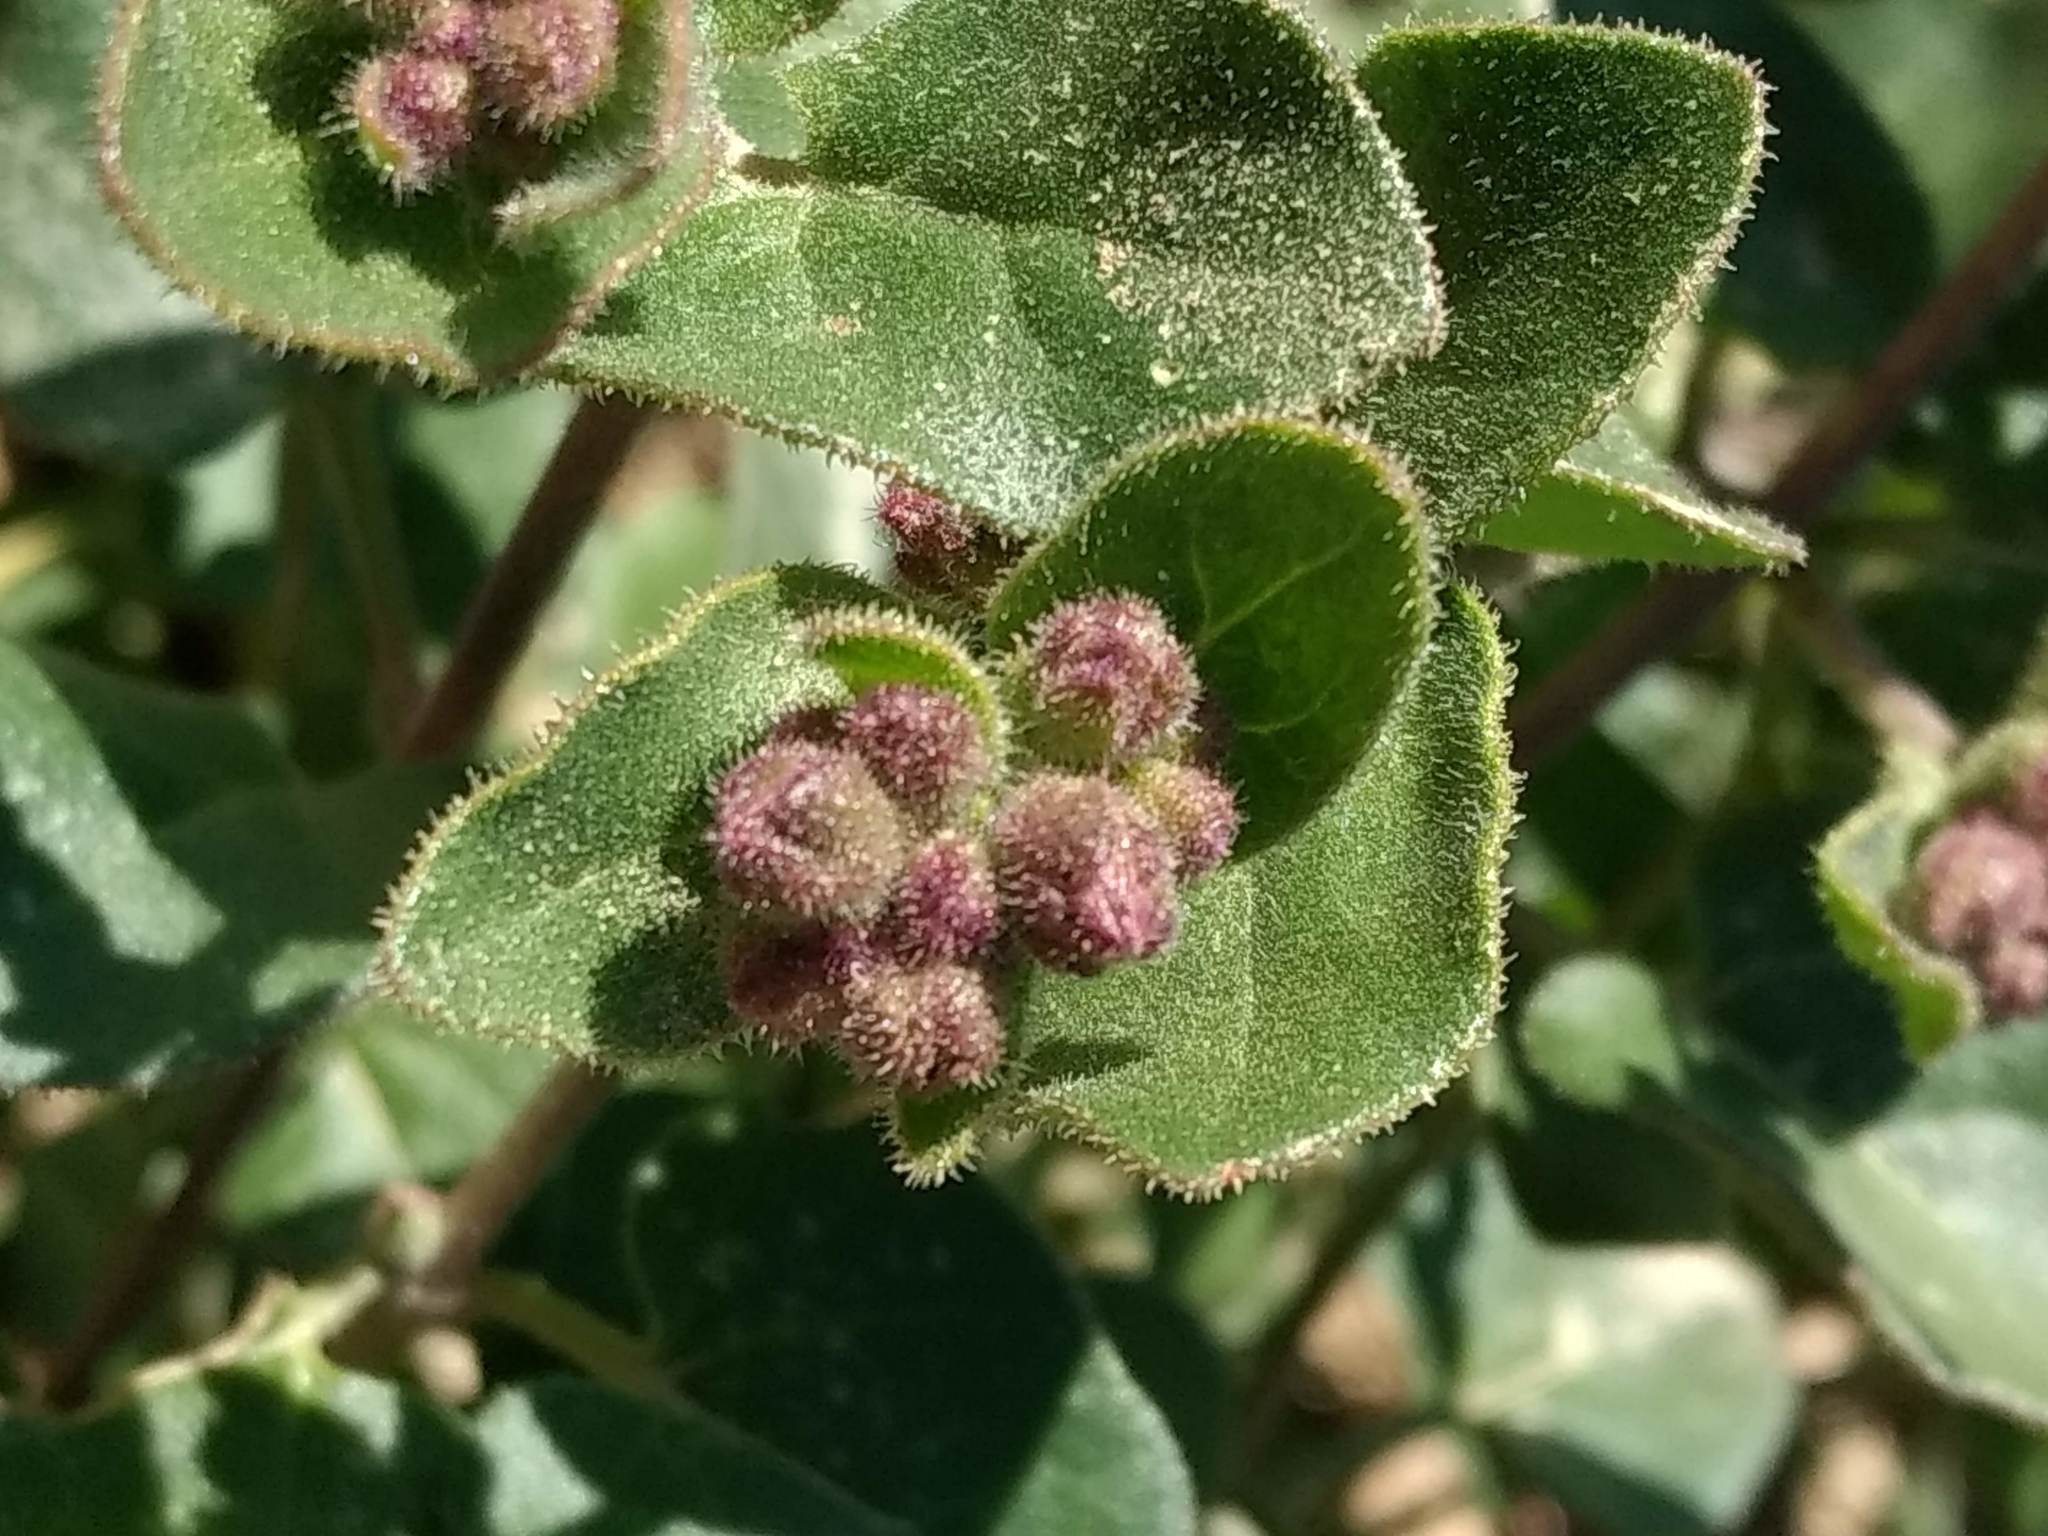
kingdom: Plantae
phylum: Tracheophyta
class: Magnoliopsida
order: Caryophyllales
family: Nyctaginaceae
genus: Mirabilis
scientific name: Mirabilis laevis
